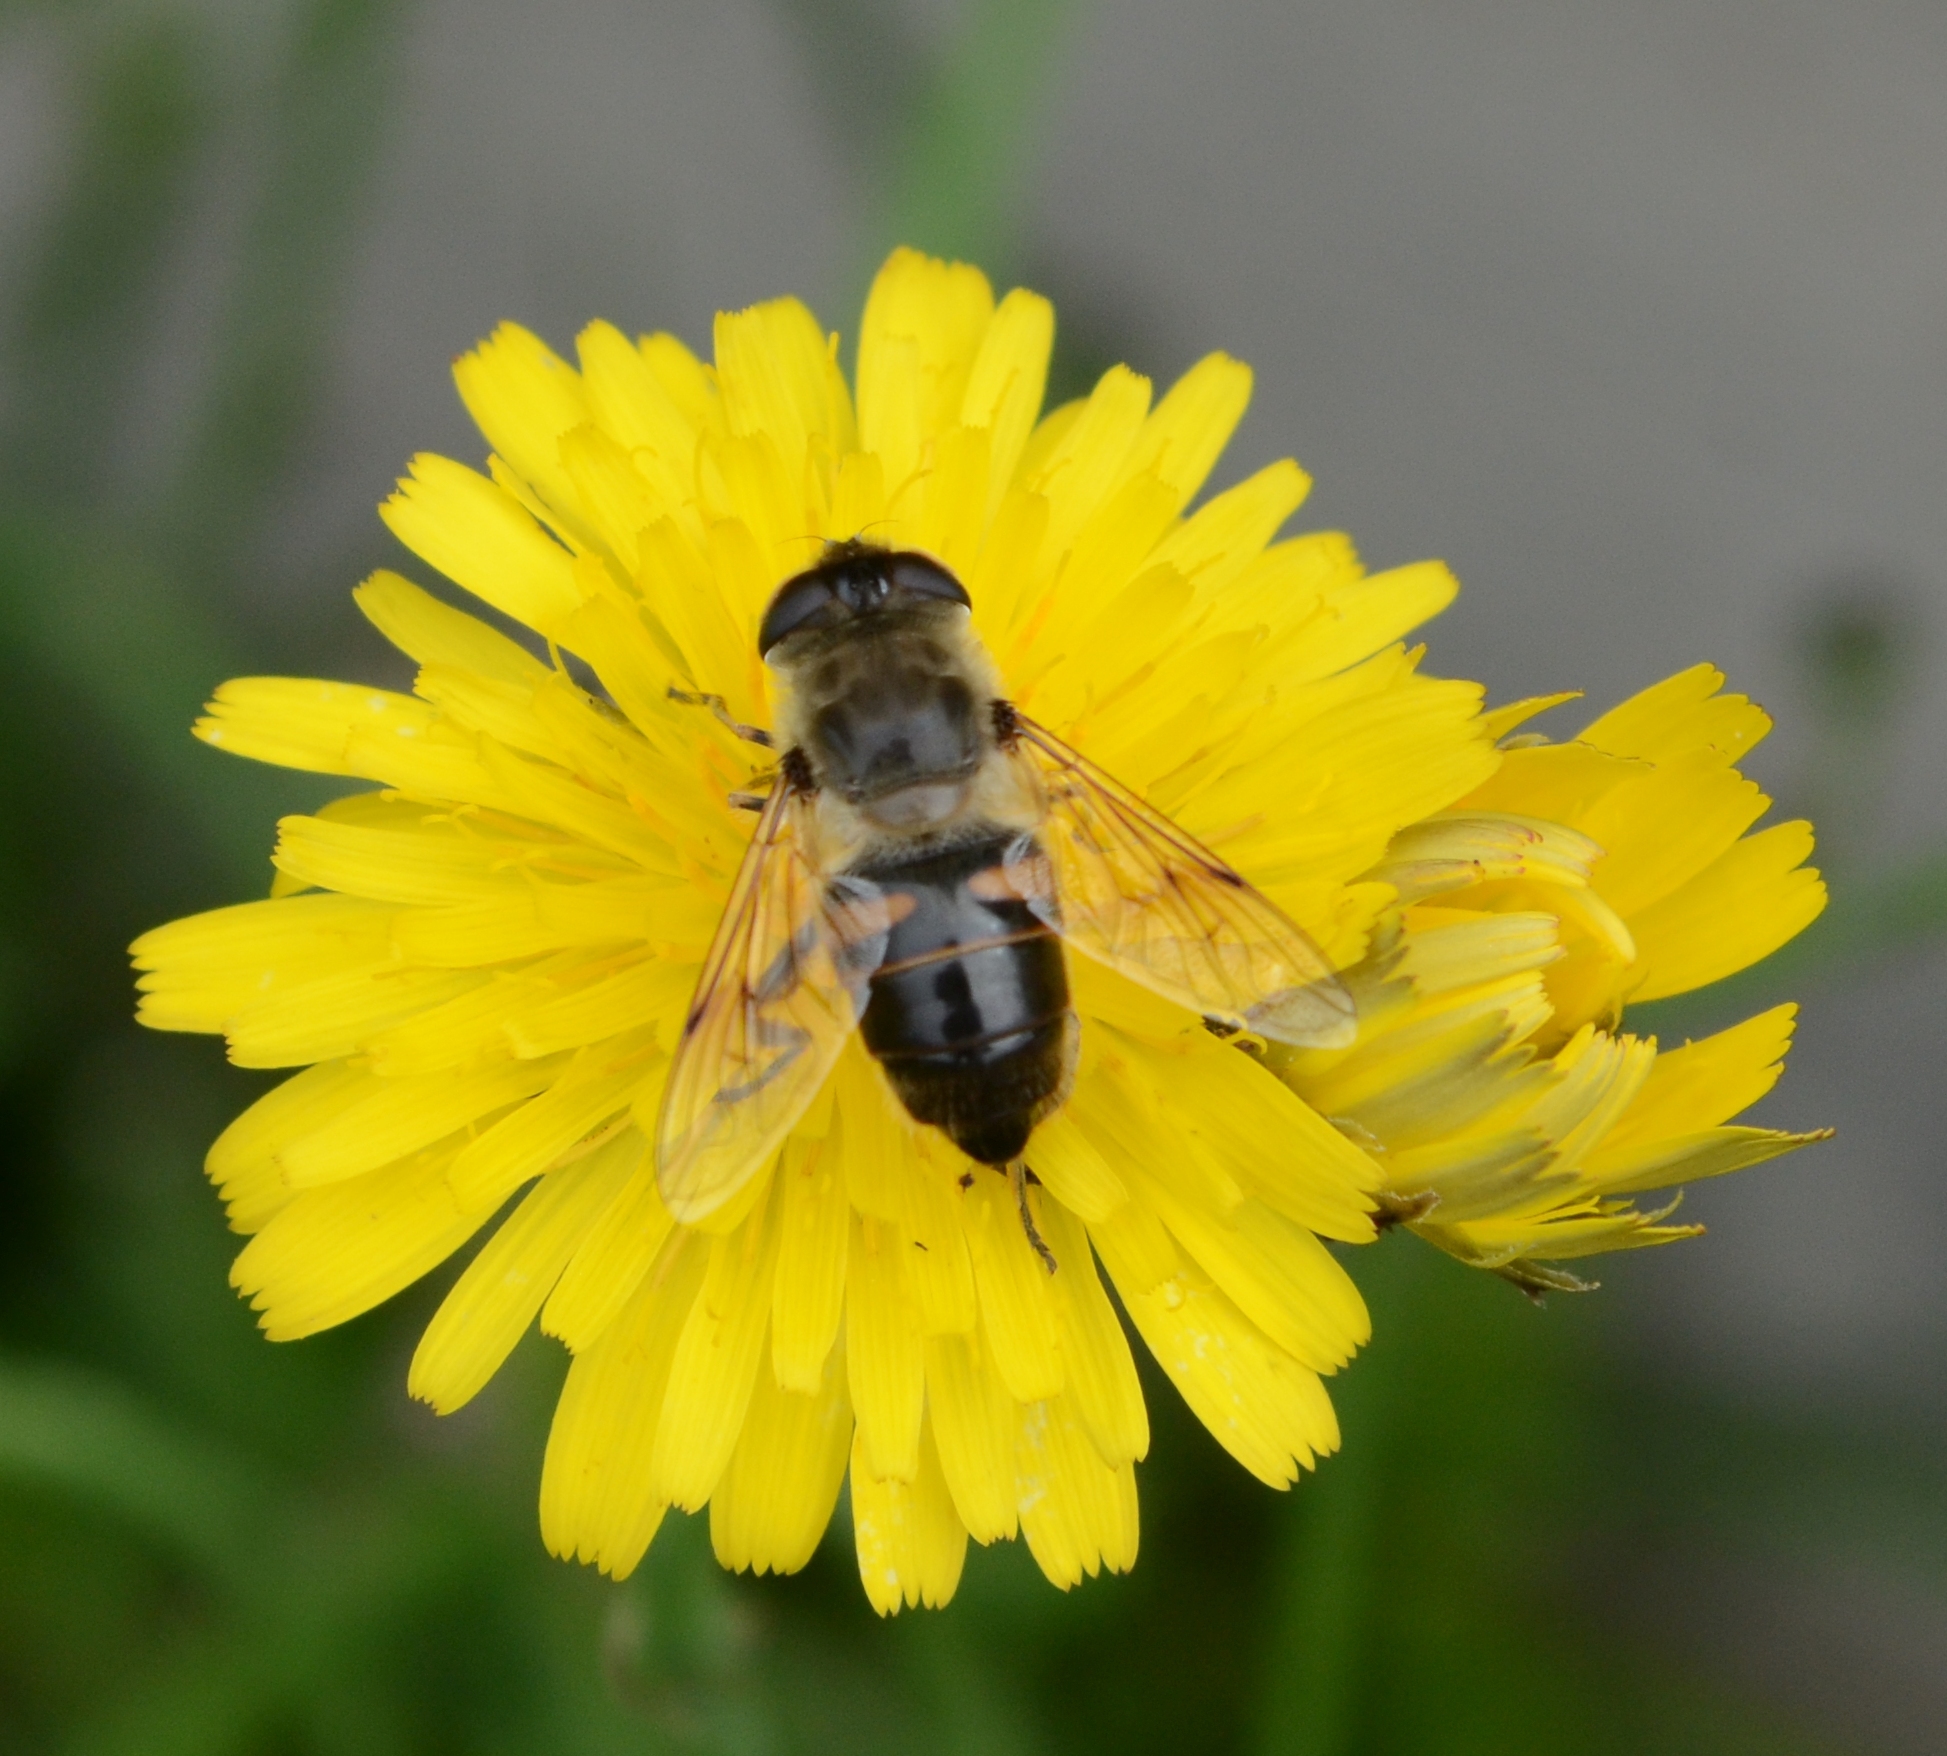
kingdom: Animalia
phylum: Arthropoda
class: Insecta
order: Diptera
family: Syrphidae
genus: Eristalis
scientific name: Eristalis tenax
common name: Drone fly
